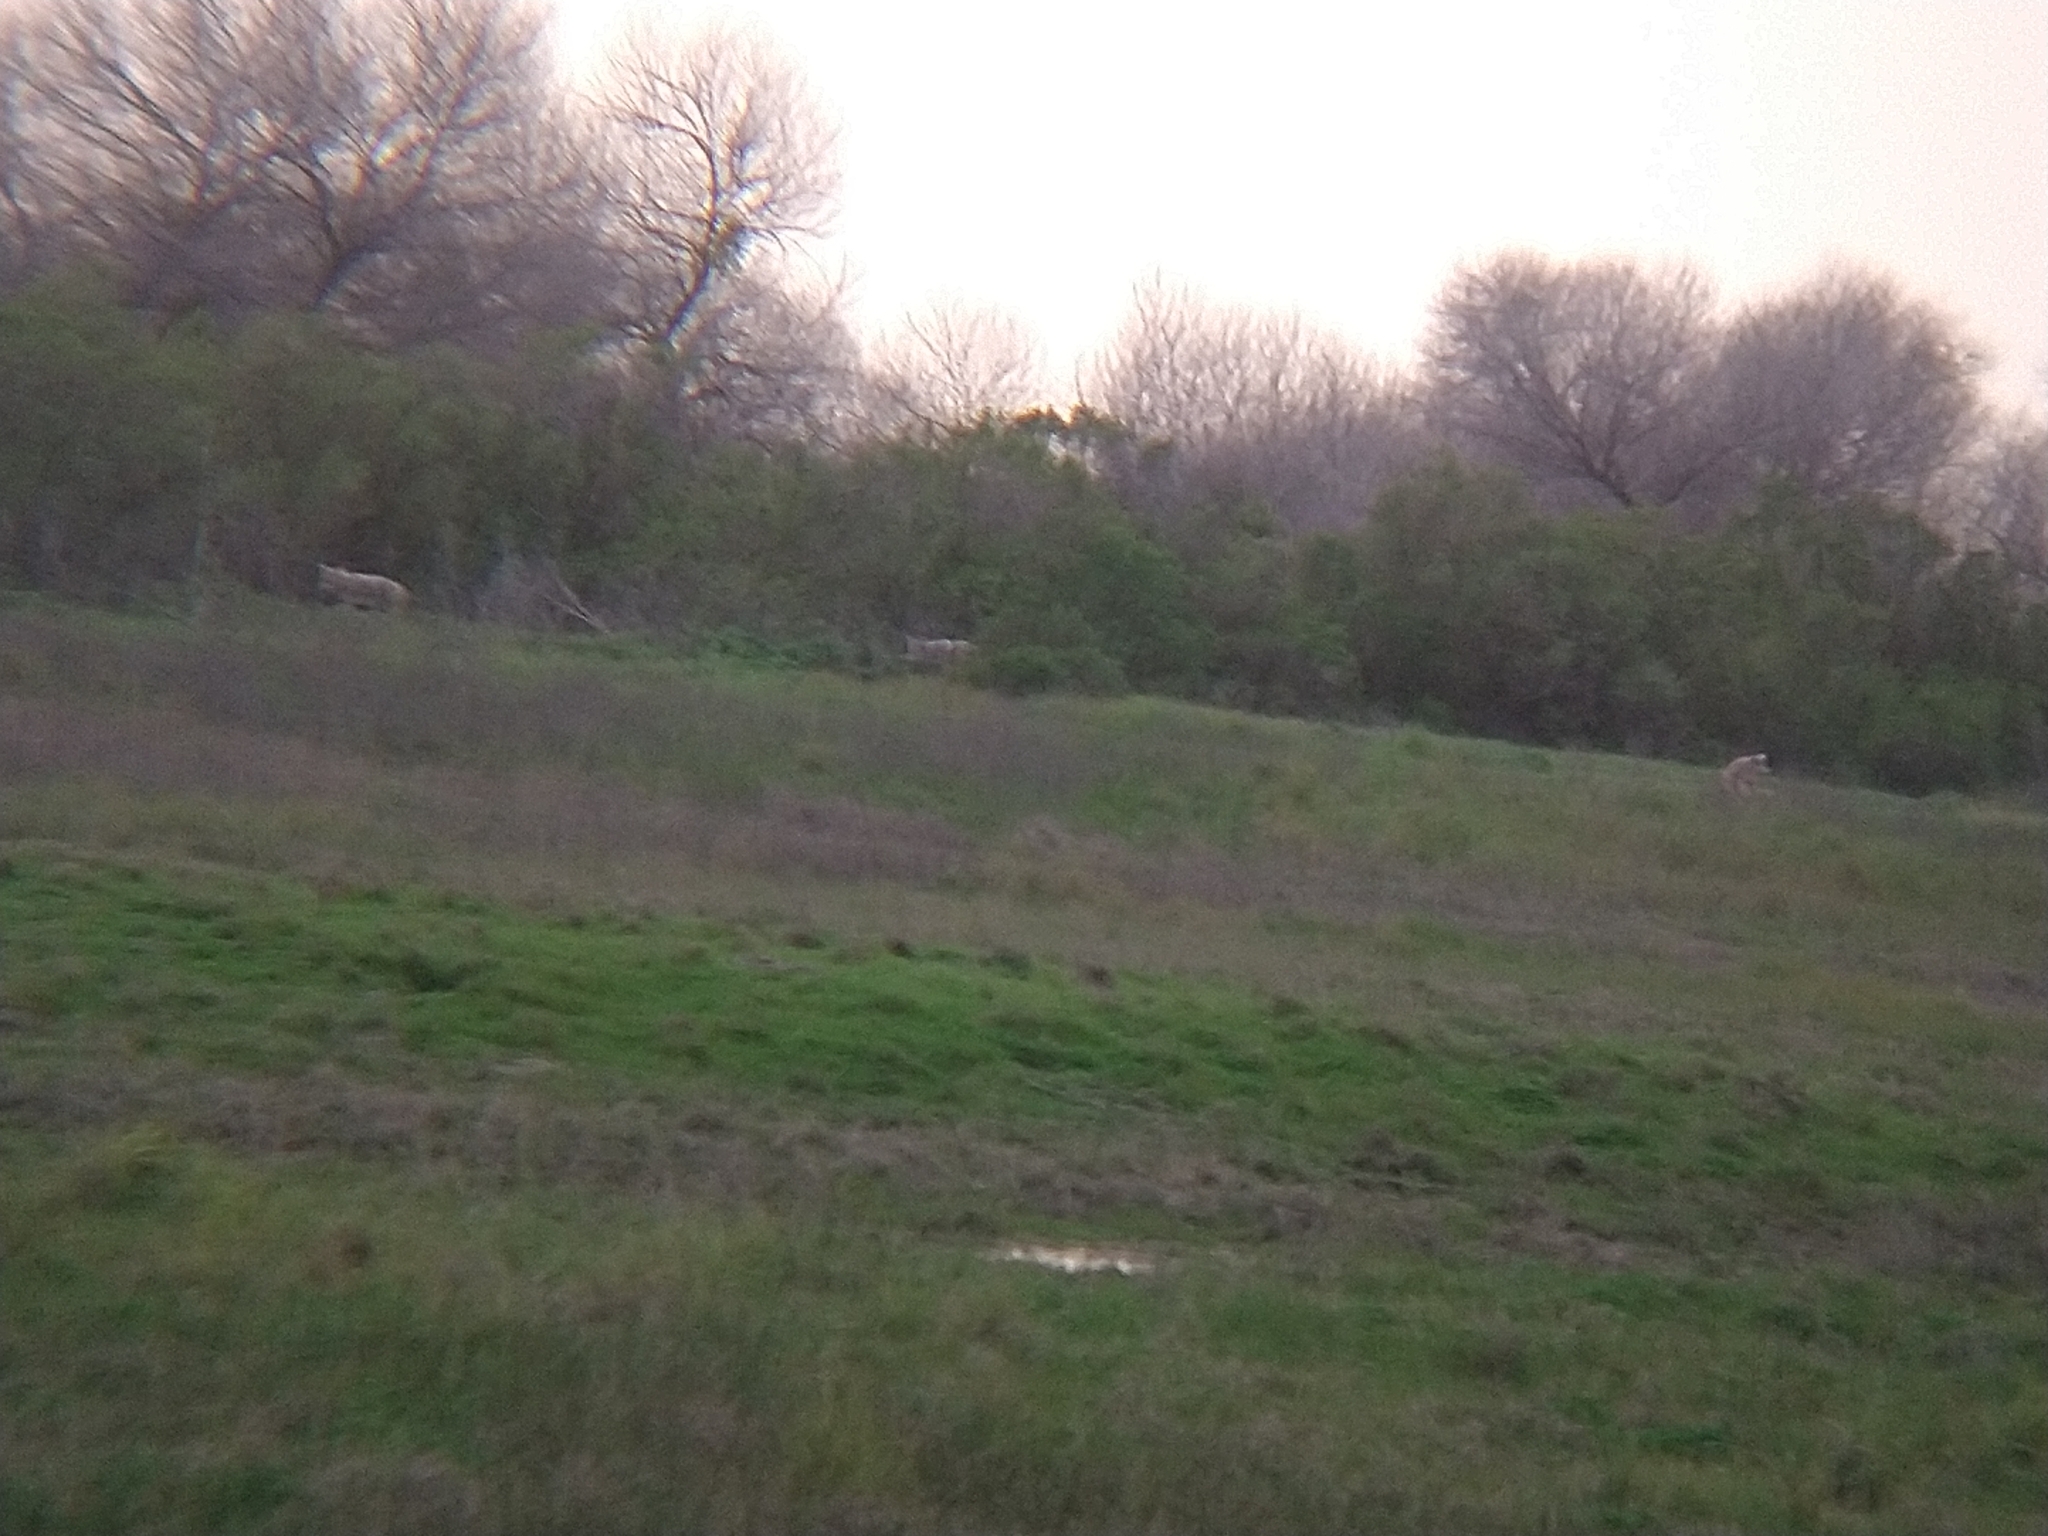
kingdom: Animalia
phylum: Chordata
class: Mammalia
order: Carnivora
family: Canidae
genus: Canis
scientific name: Canis latrans
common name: Coyote
